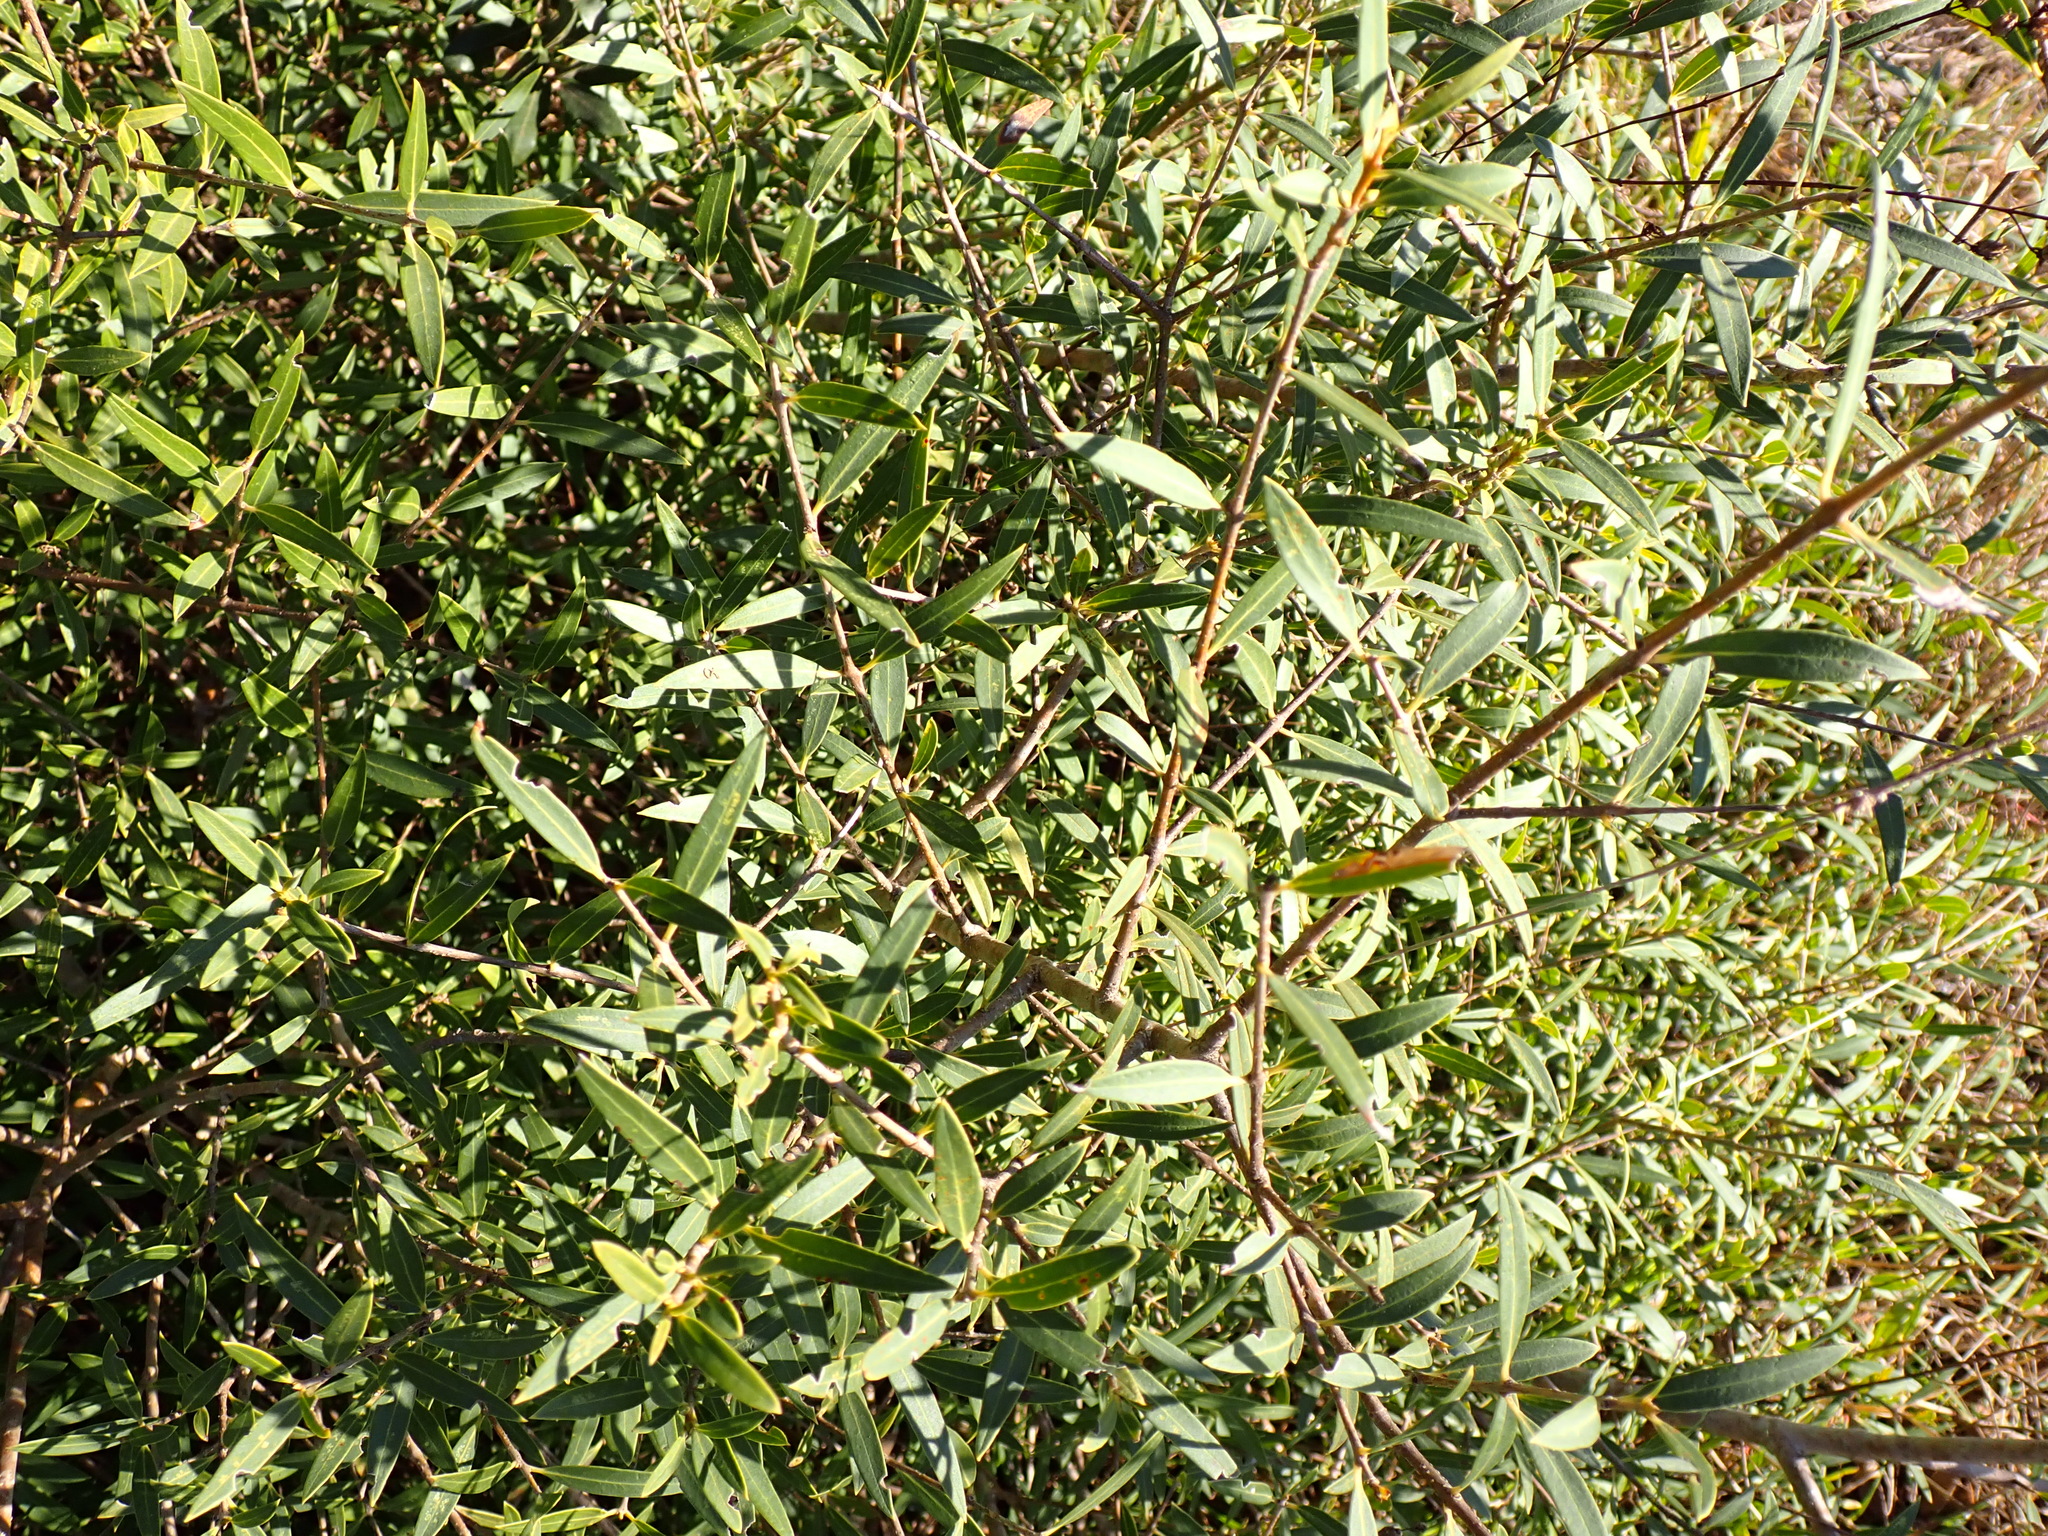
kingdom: Plantae
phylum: Tracheophyta
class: Magnoliopsida
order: Lamiales
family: Oleaceae
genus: Phillyrea
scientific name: Phillyrea angustifolia
